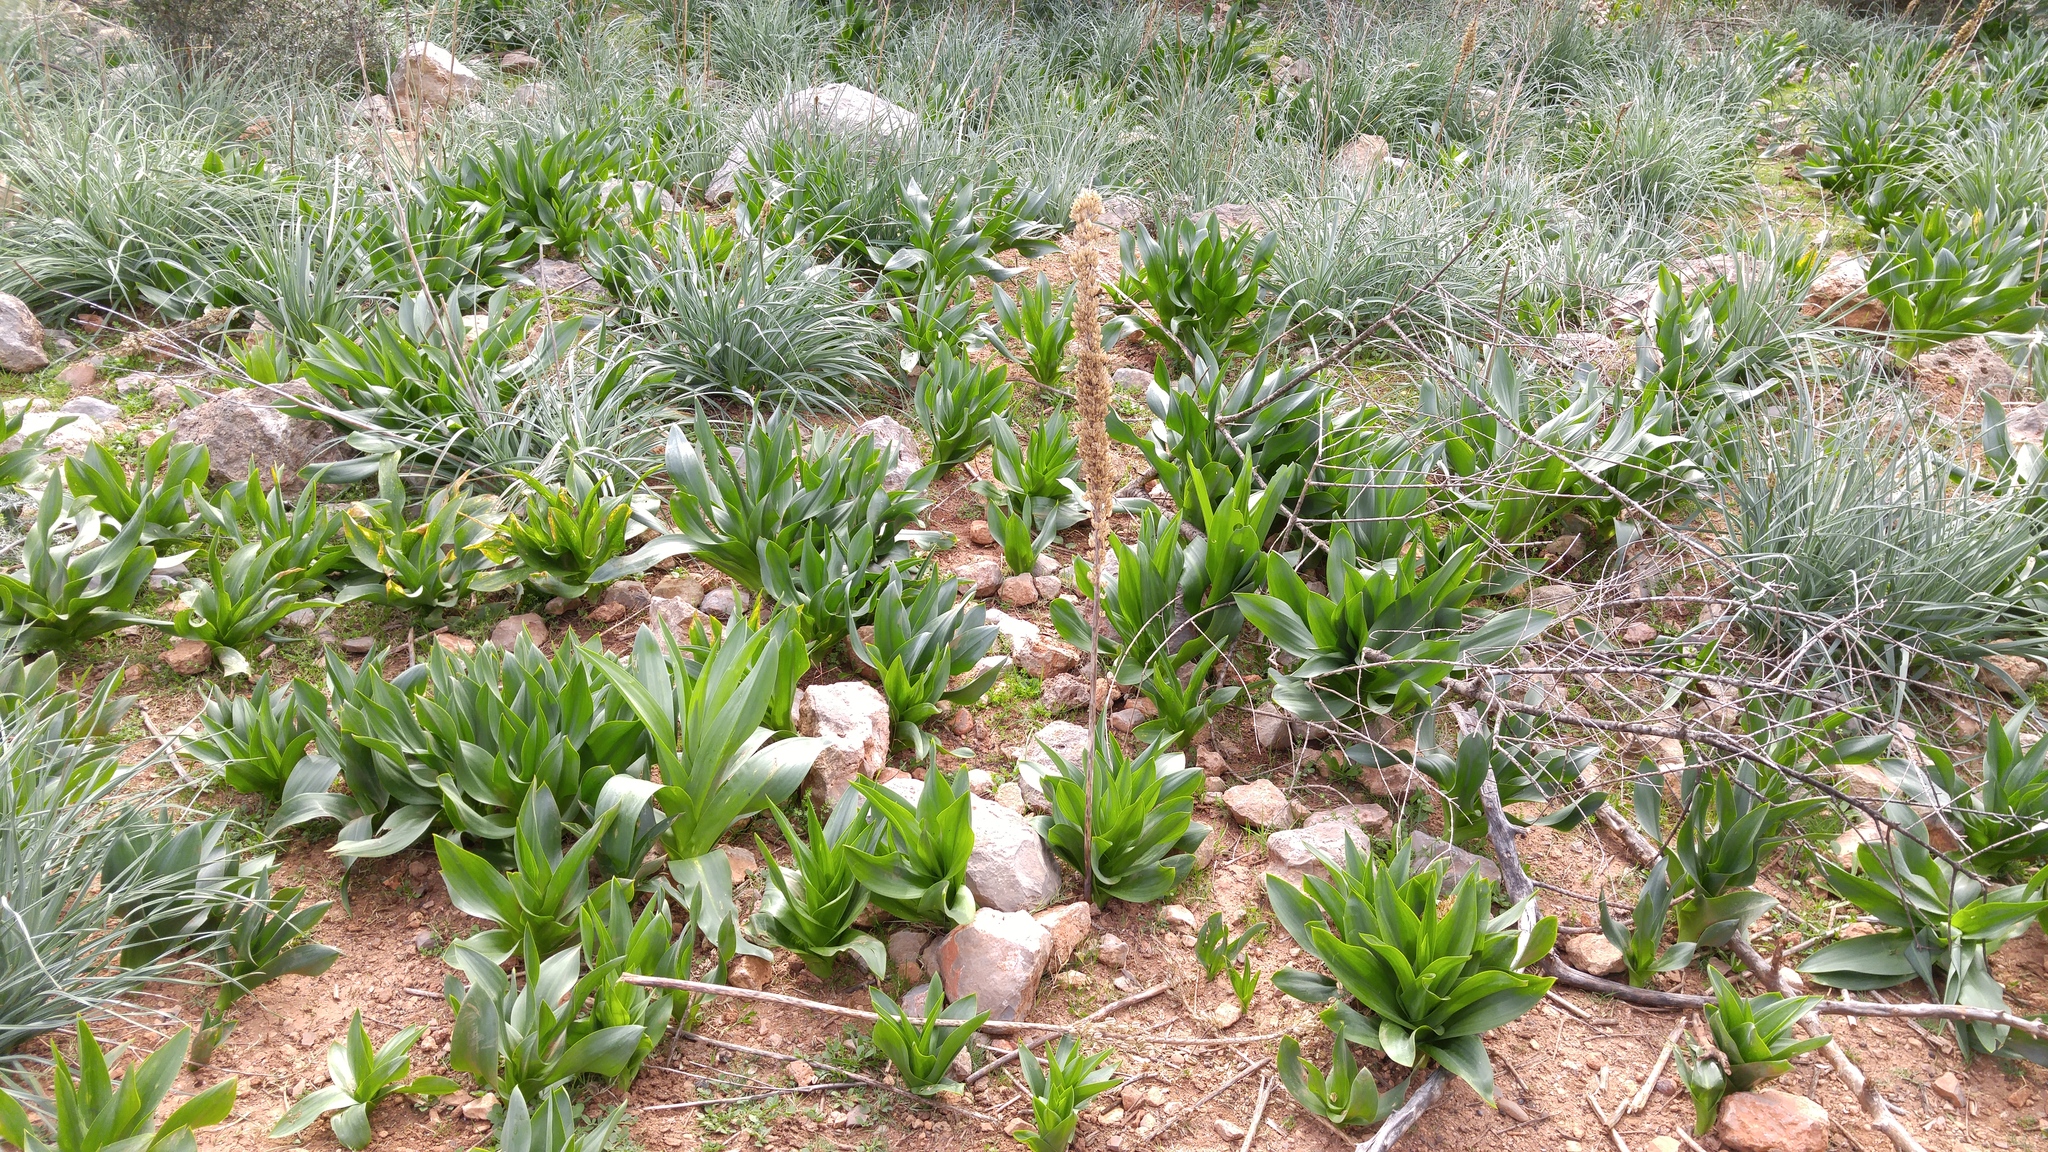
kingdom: Plantae
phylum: Tracheophyta
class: Liliopsida
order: Asparagales
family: Asparagaceae
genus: Drimia
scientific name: Drimia numidica
